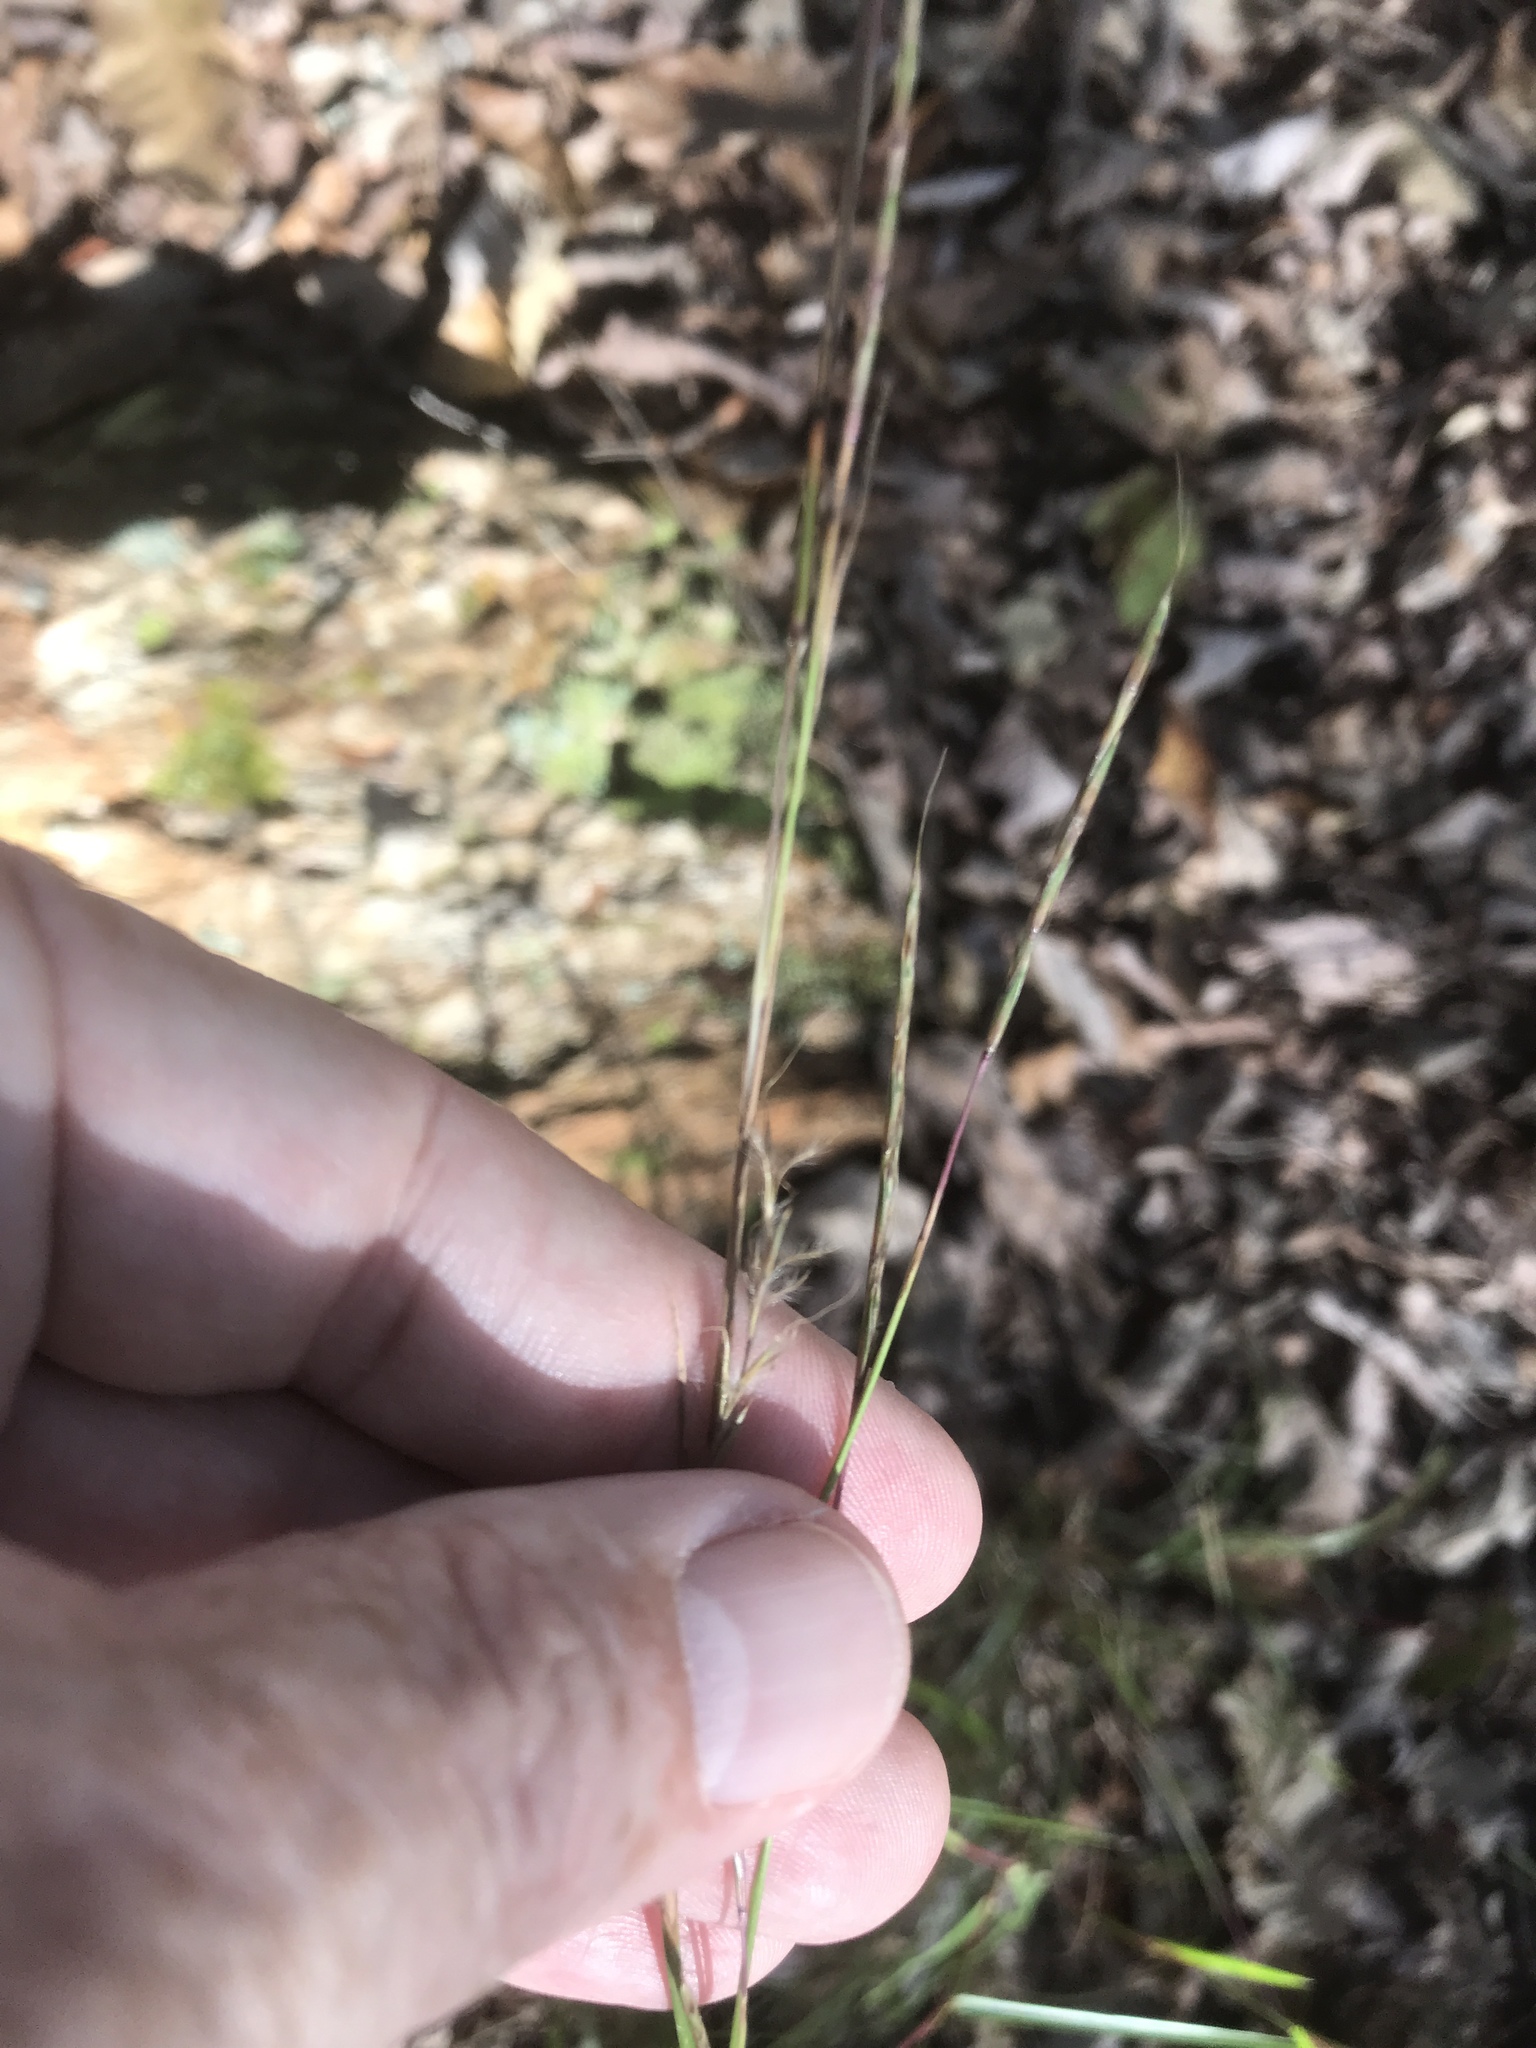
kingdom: Plantae
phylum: Tracheophyta
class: Liliopsida
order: Poales
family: Poaceae
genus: Schizachyrium
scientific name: Schizachyrium scoparium
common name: Little bluestem
